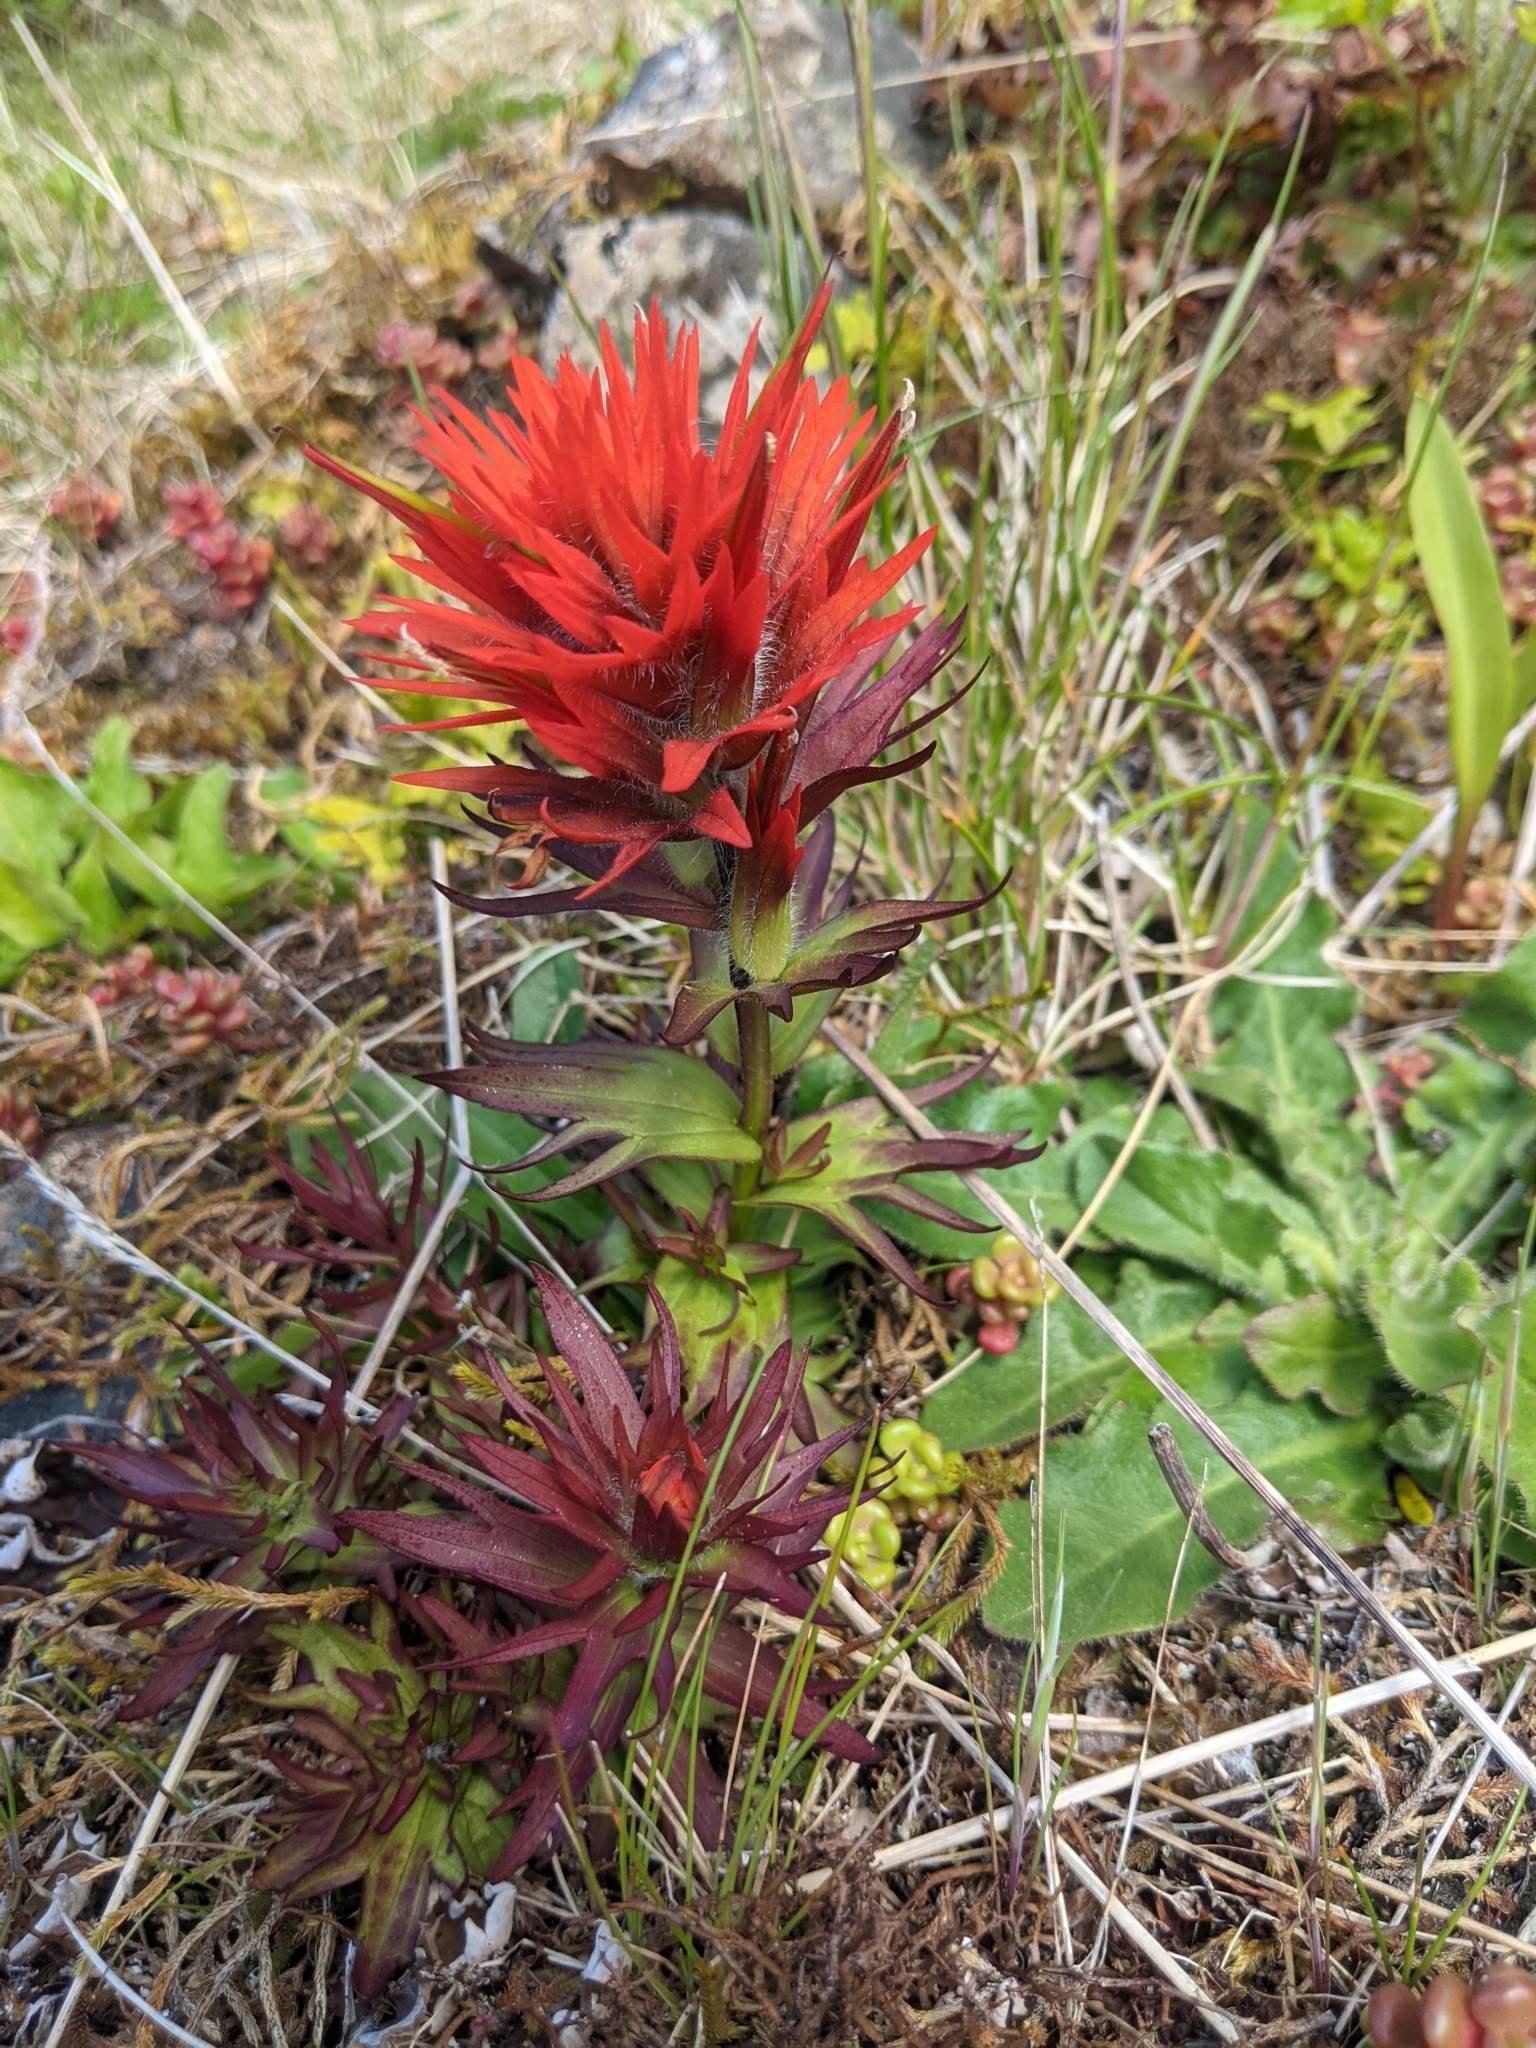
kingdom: Plantae
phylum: Tracheophyta
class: Magnoliopsida
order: Lamiales
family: Orobanchaceae
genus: Castilleja
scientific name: Castilleja chambersii
